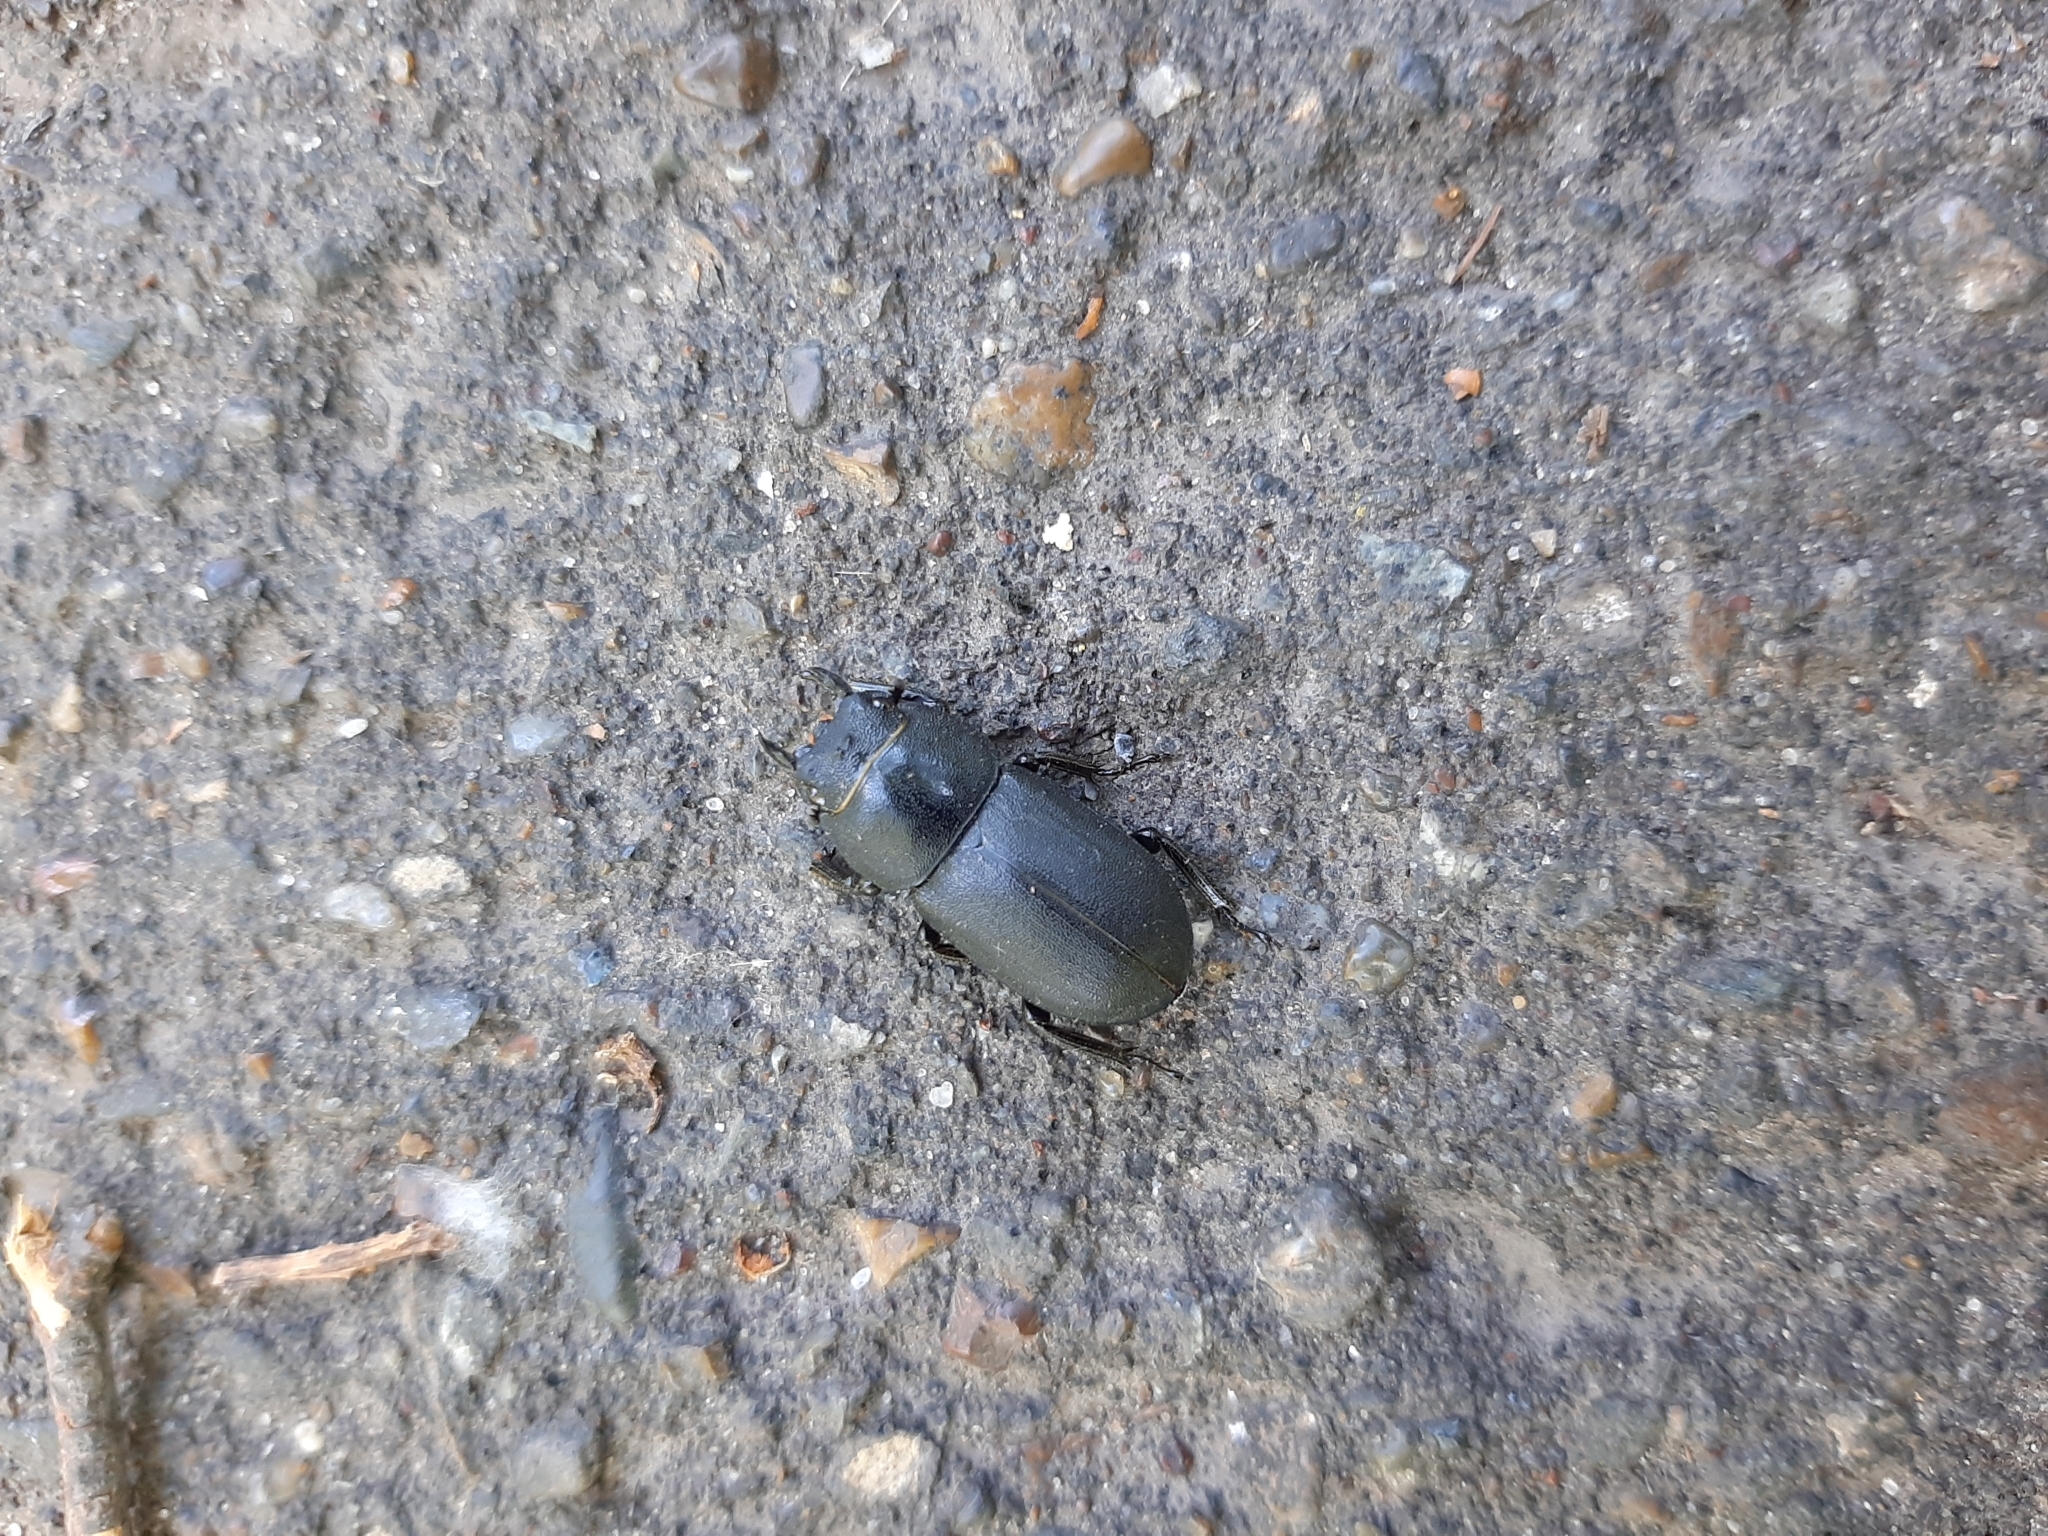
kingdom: Animalia
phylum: Arthropoda
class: Insecta
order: Coleoptera
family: Lucanidae
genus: Dorcus
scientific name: Dorcus parallelipipedus
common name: Lesser stag beetle
